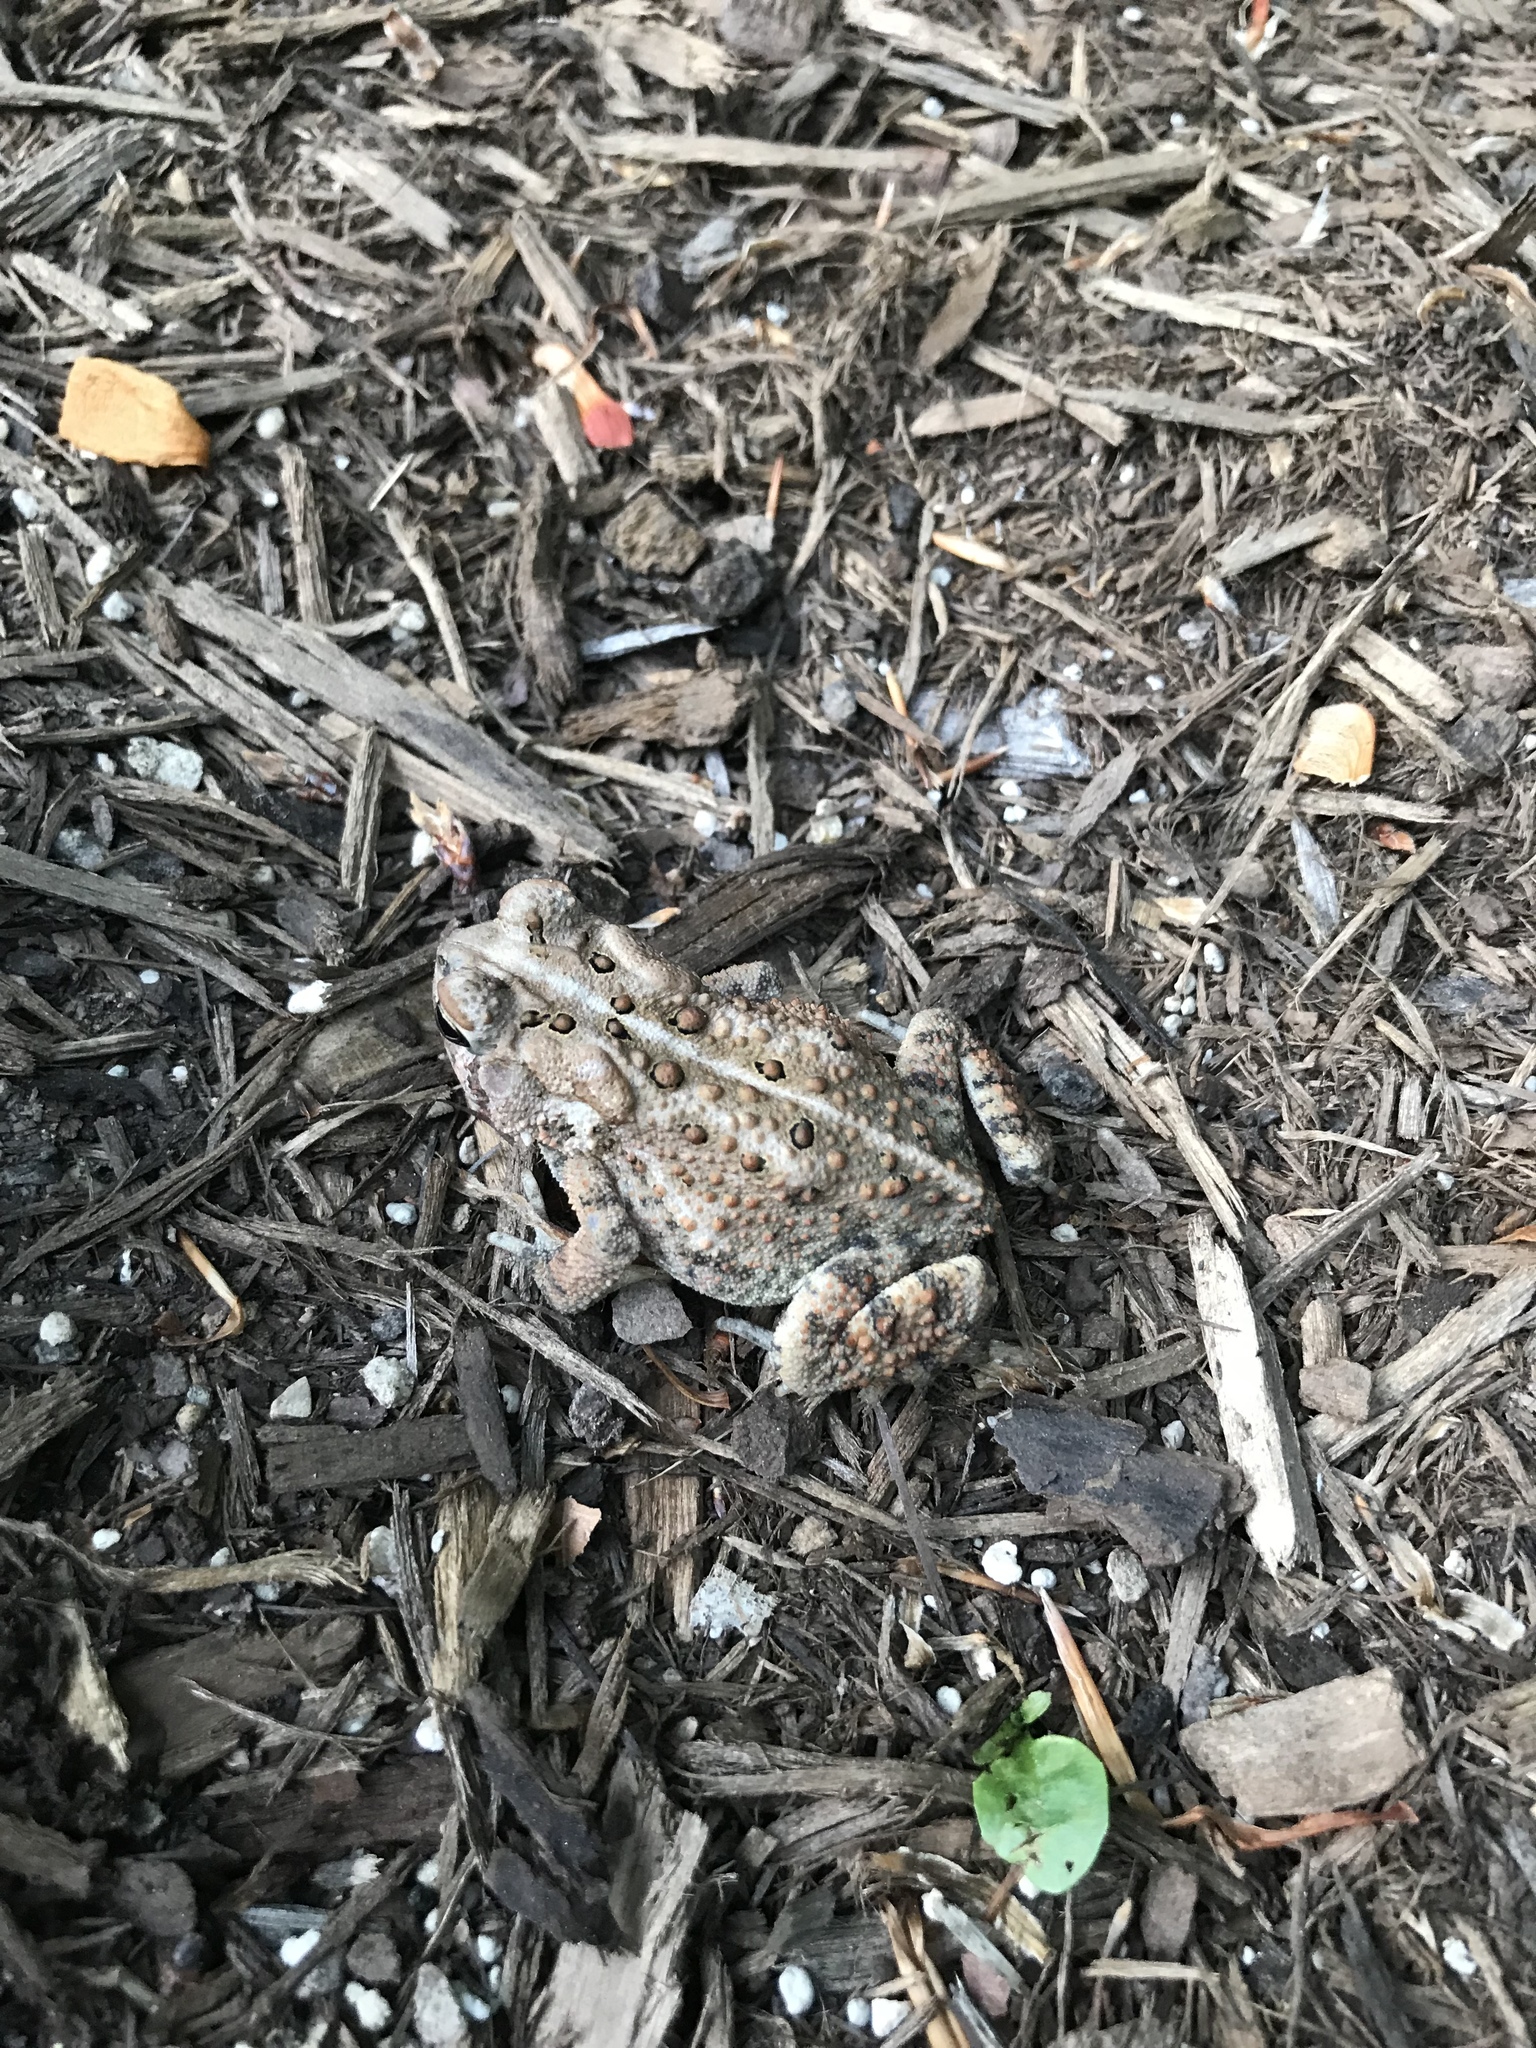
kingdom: Animalia
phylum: Chordata
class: Amphibia
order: Anura
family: Bufonidae
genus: Anaxyrus
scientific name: Anaxyrus americanus
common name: American toad
